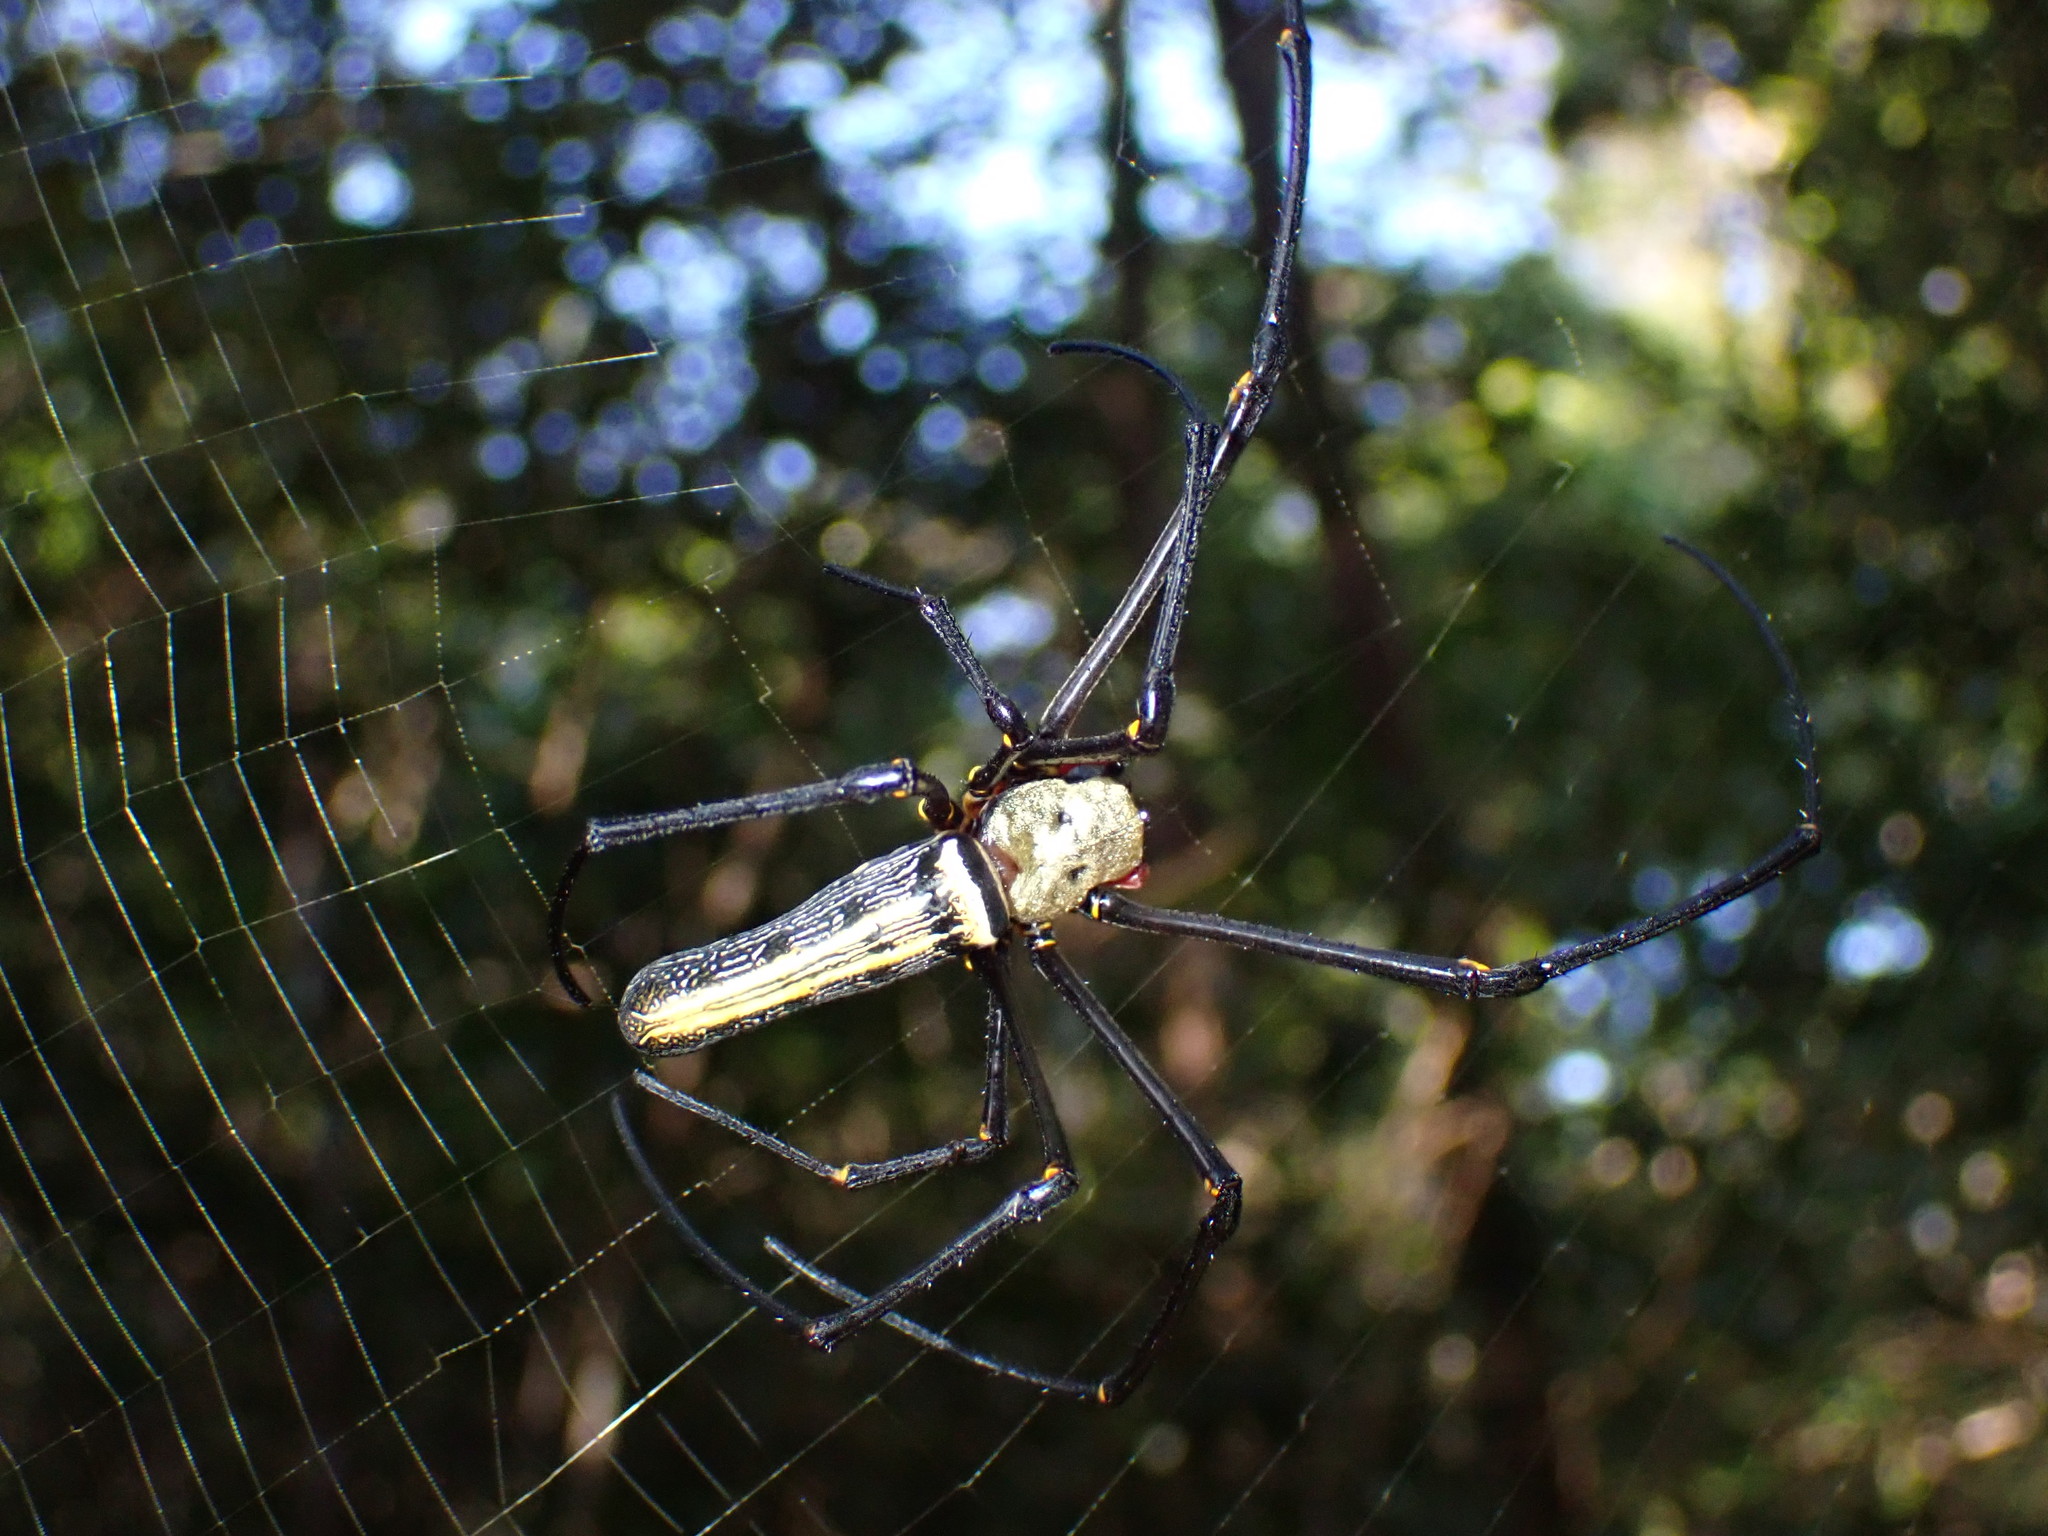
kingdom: Animalia
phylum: Arthropoda
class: Arachnida
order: Araneae
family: Araneidae
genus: Nephila
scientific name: Nephila pilipes
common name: Giant golden orb weaver
